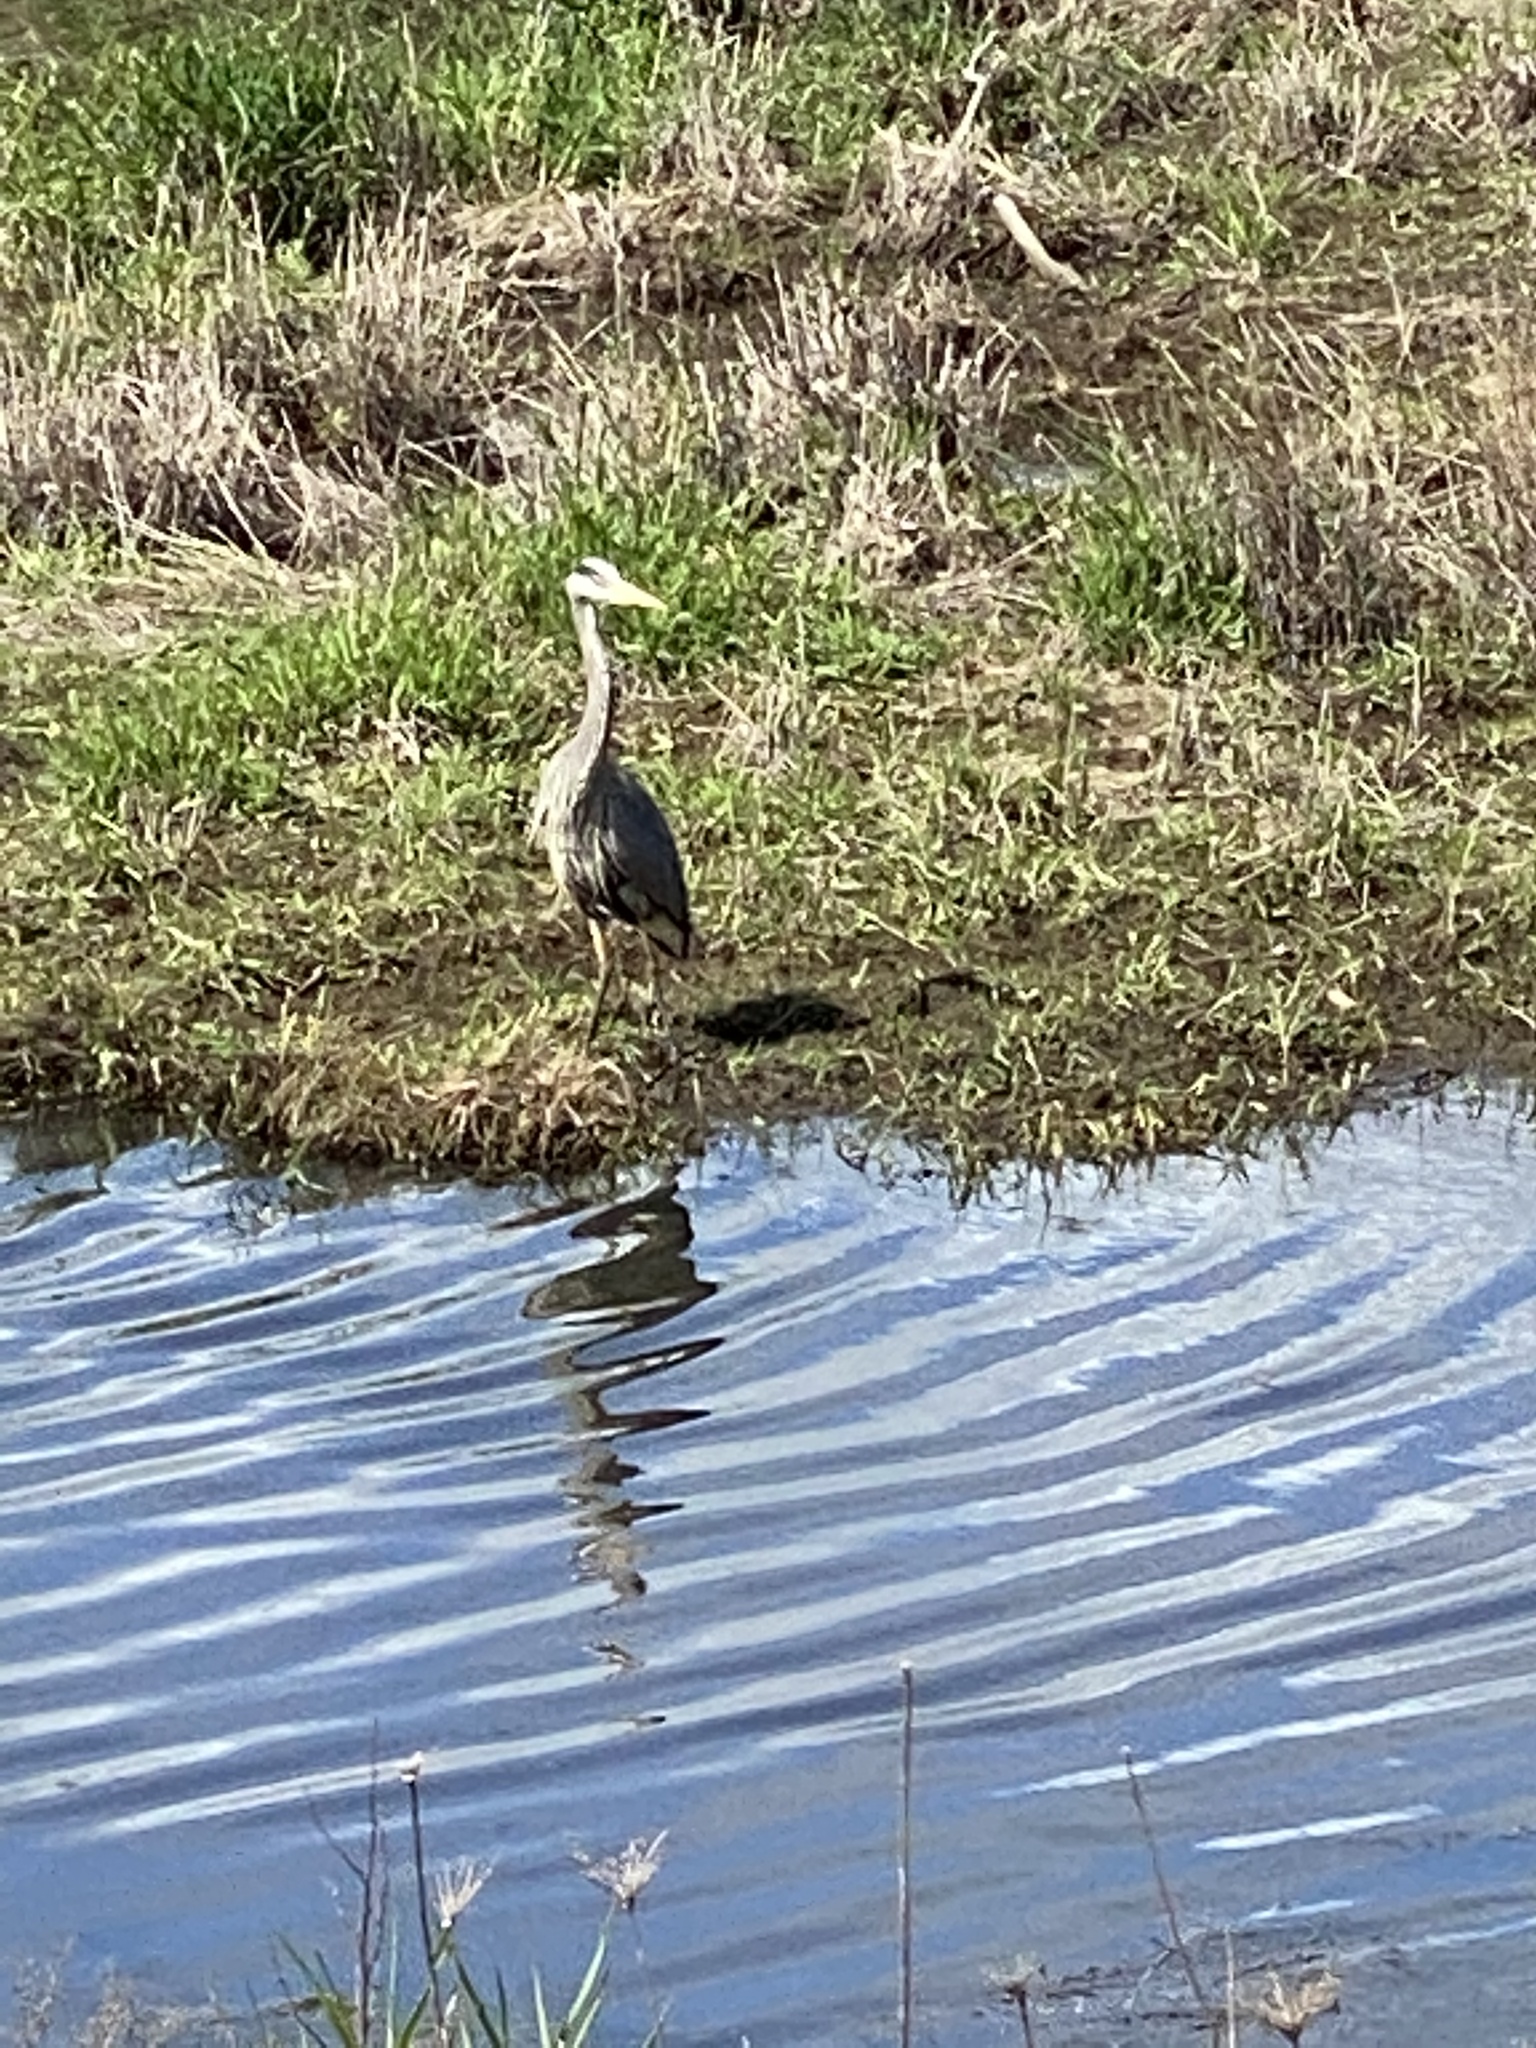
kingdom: Animalia
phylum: Chordata
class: Aves
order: Pelecaniformes
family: Ardeidae
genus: Ardea
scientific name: Ardea herodias
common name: Great blue heron
